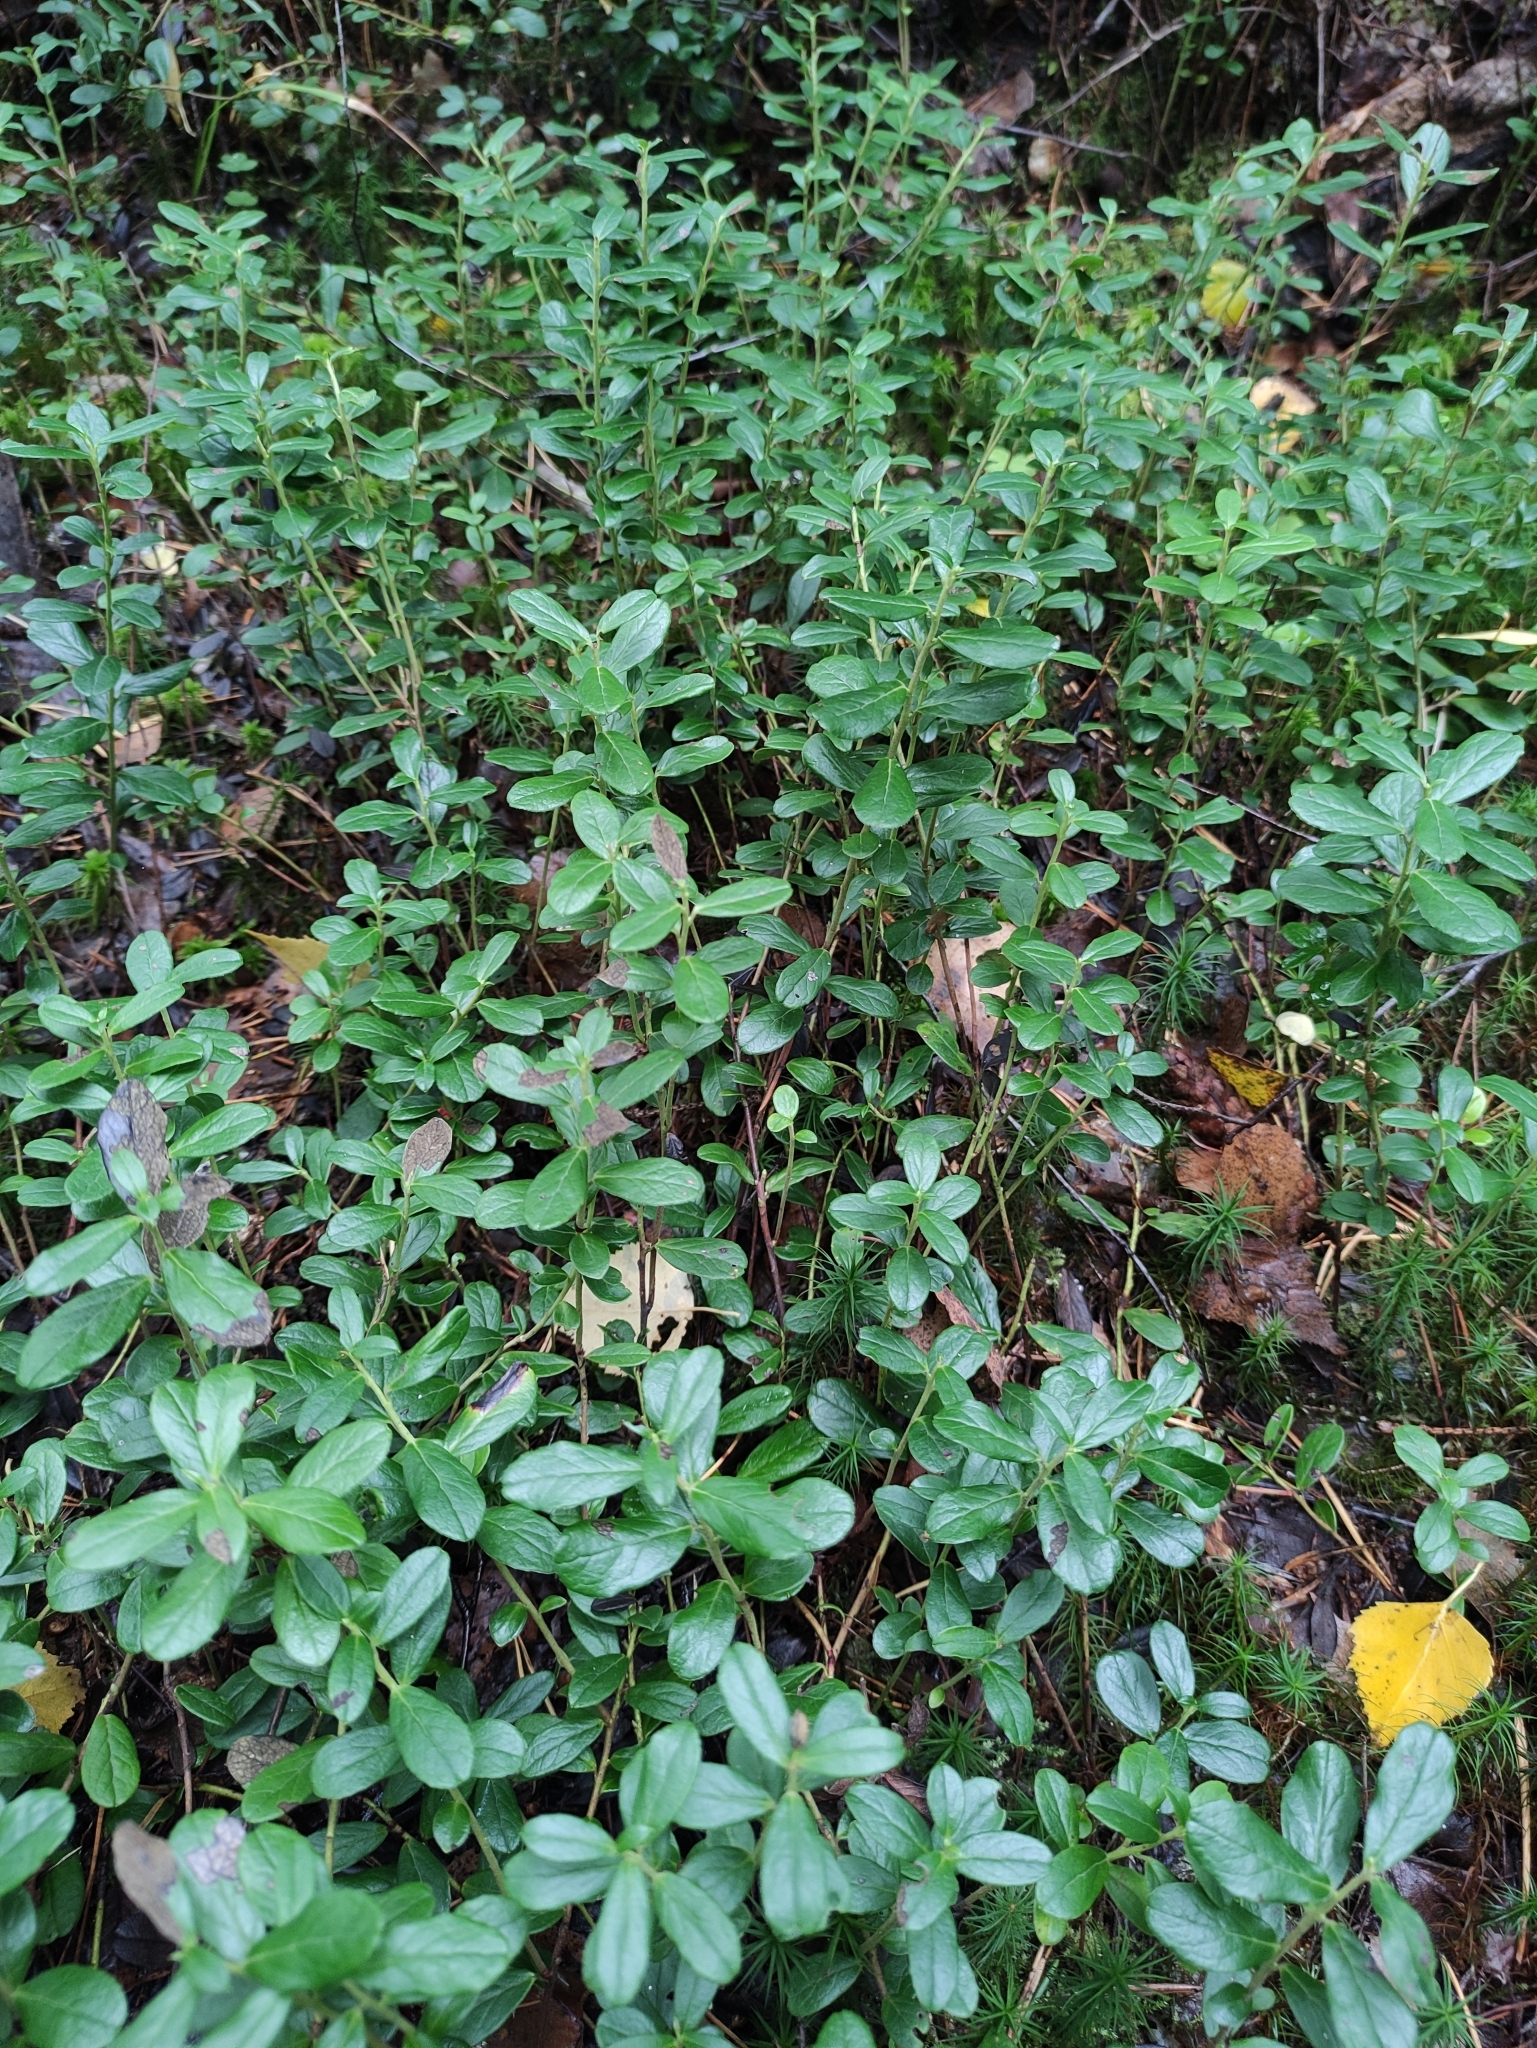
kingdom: Plantae
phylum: Tracheophyta
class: Magnoliopsida
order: Ericales
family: Ericaceae
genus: Vaccinium
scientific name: Vaccinium vitis-idaea
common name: Cowberry
